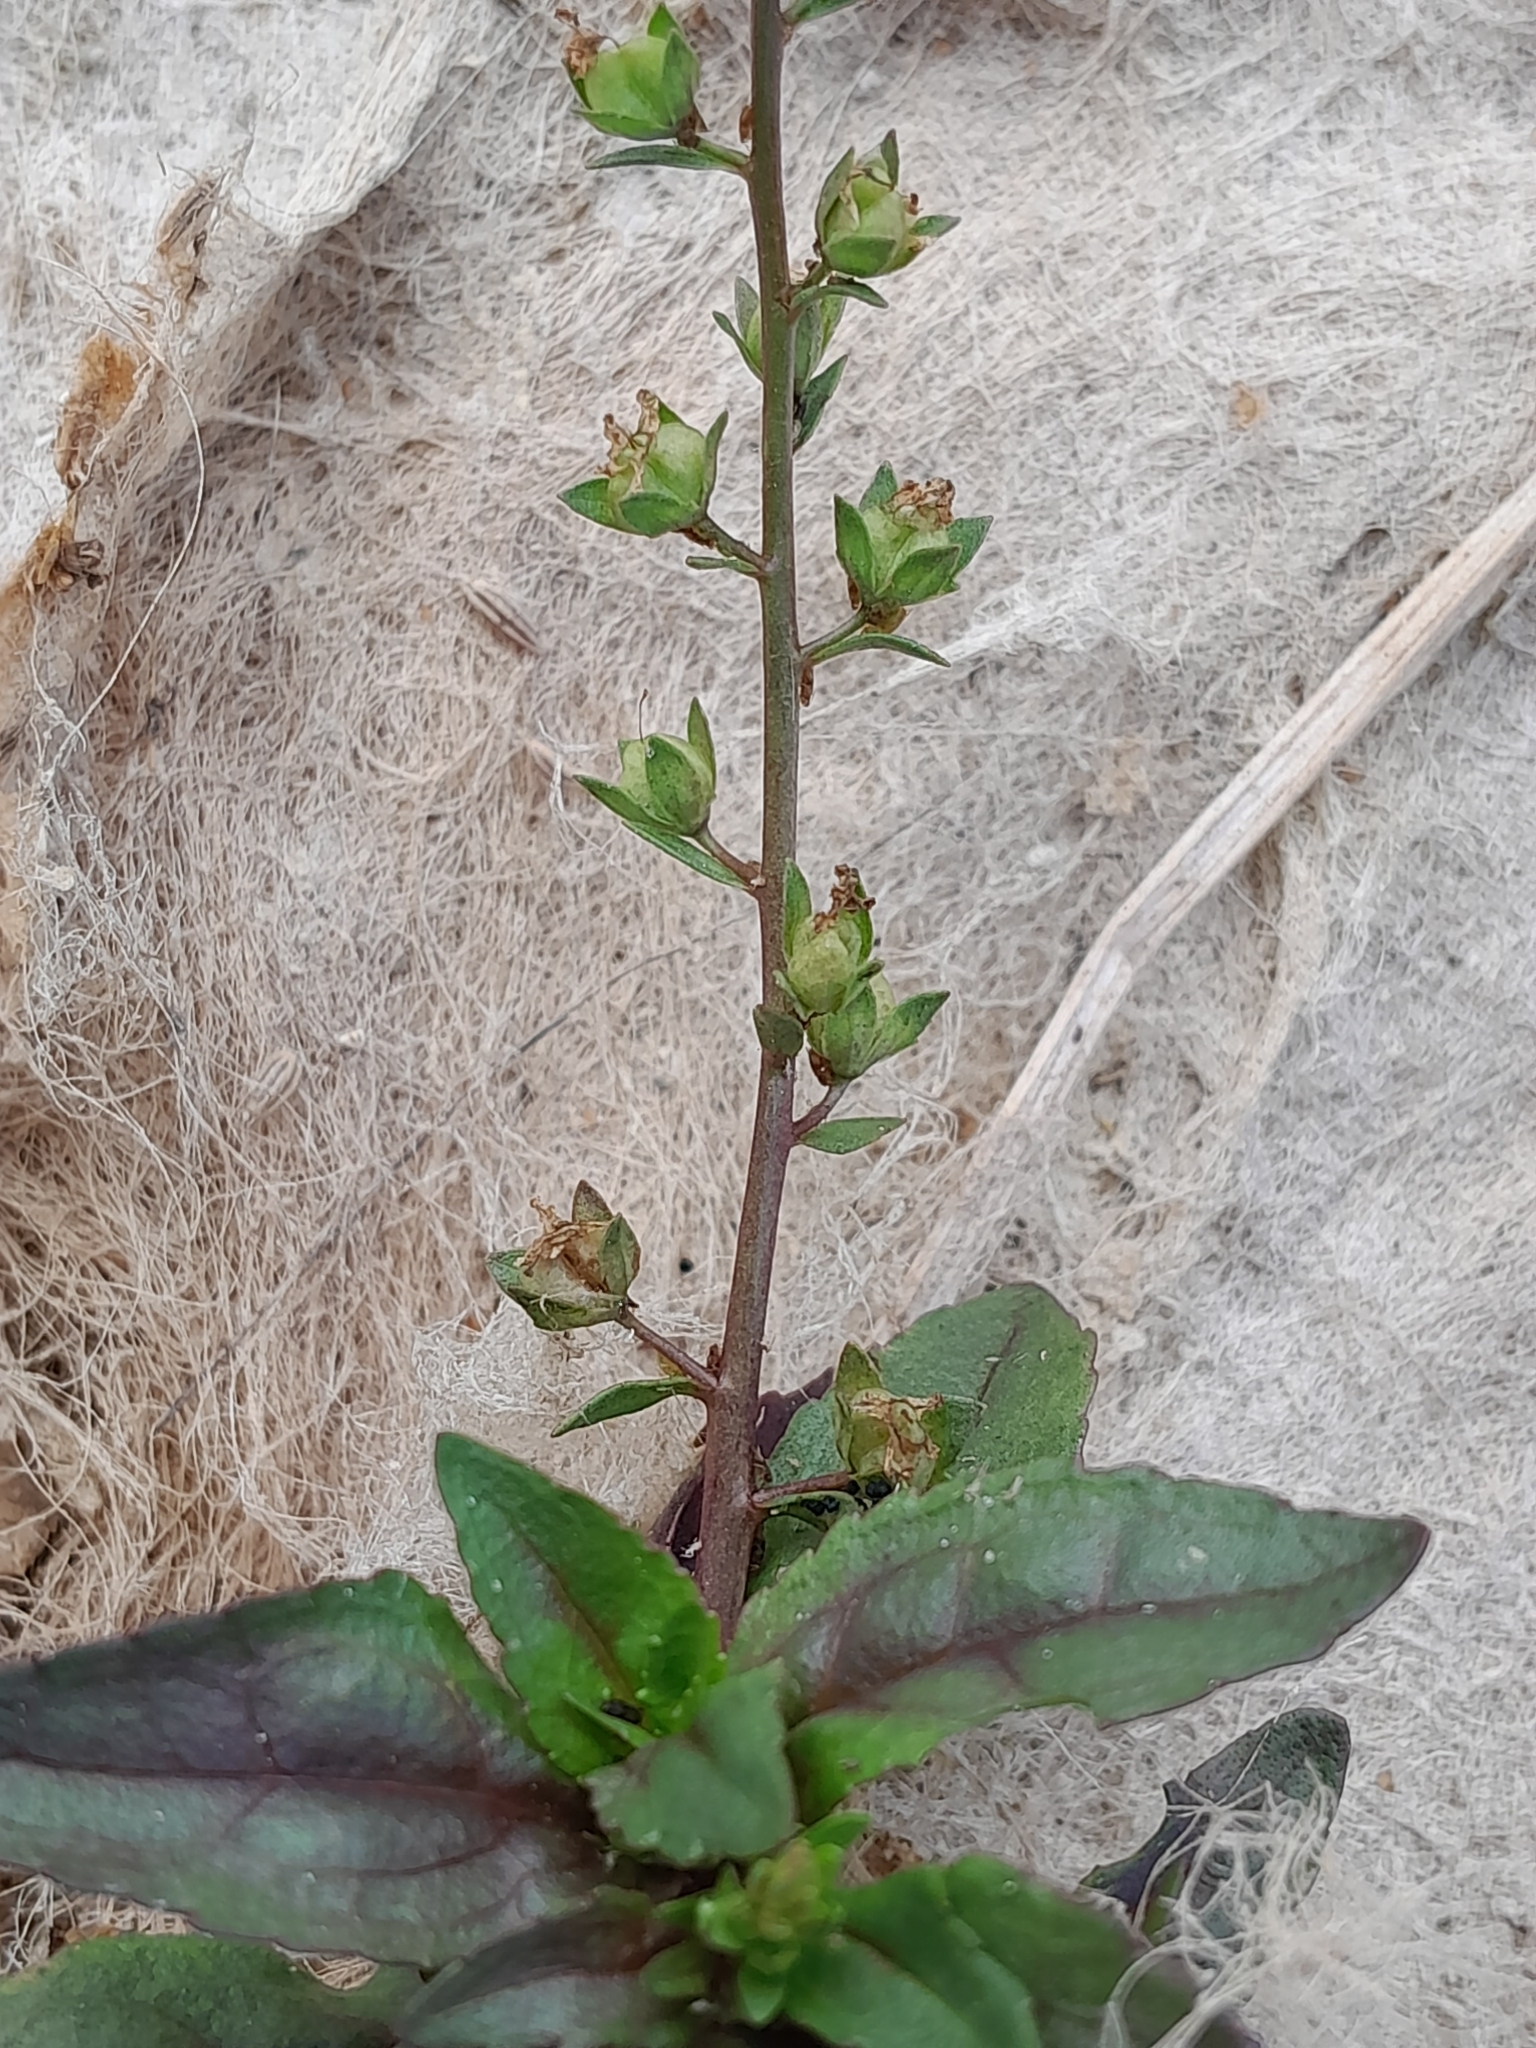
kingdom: Plantae
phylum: Tracheophyta
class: Magnoliopsida
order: Lamiales
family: Plantaginaceae
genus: Veronica
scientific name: Veronica catenata
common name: Pink water-speedwell
